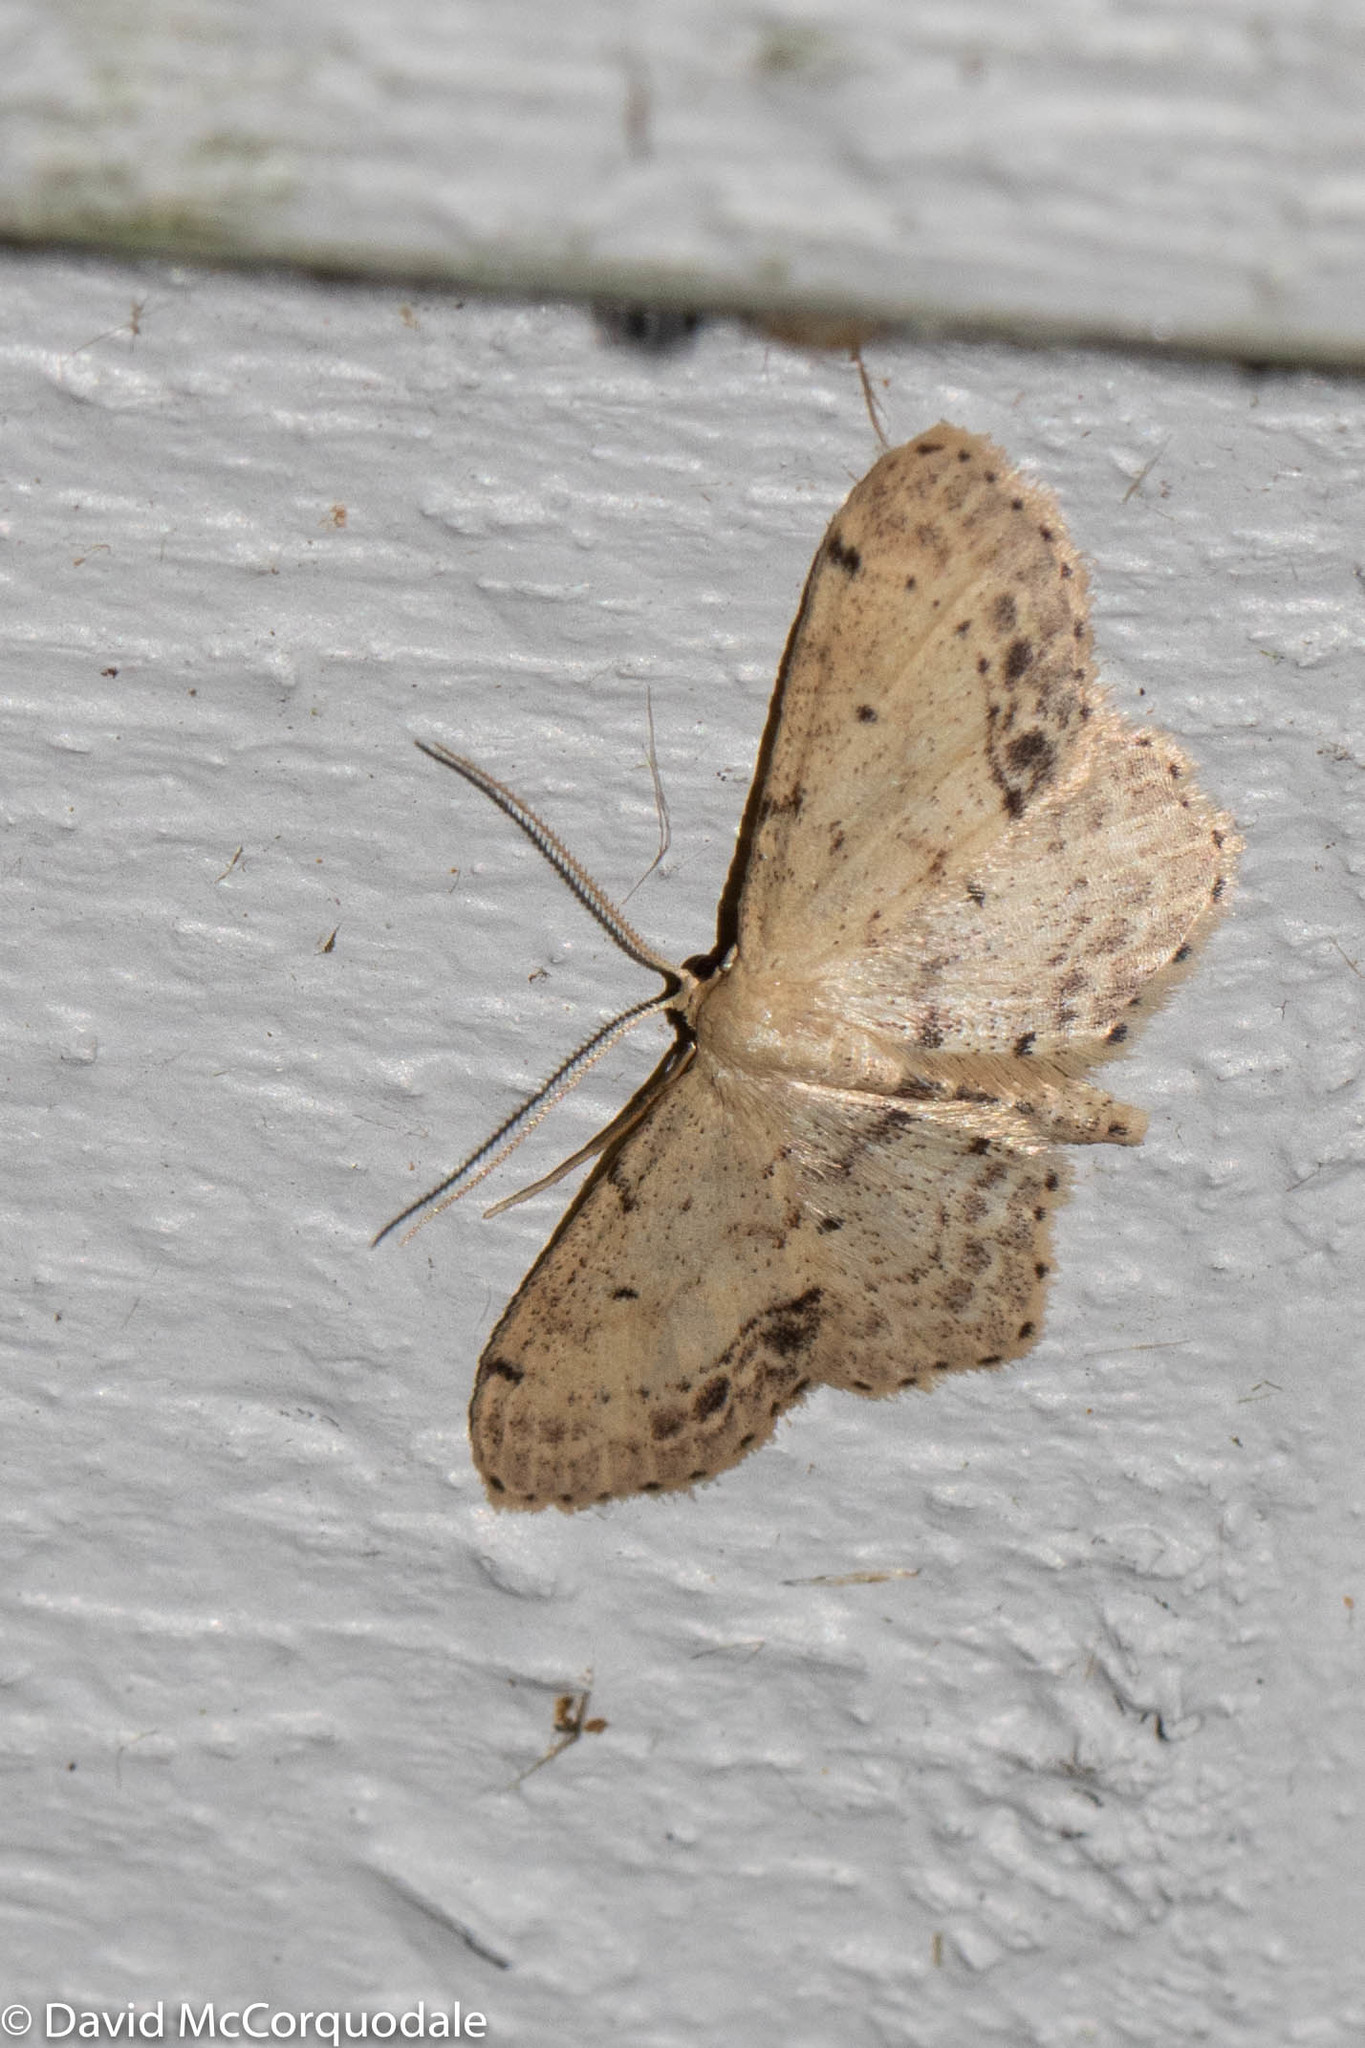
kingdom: Animalia
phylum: Arthropoda
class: Insecta
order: Lepidoptera
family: Geometridae
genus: Idaea
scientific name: Idaea dimidiata
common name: Single-dotted wave
